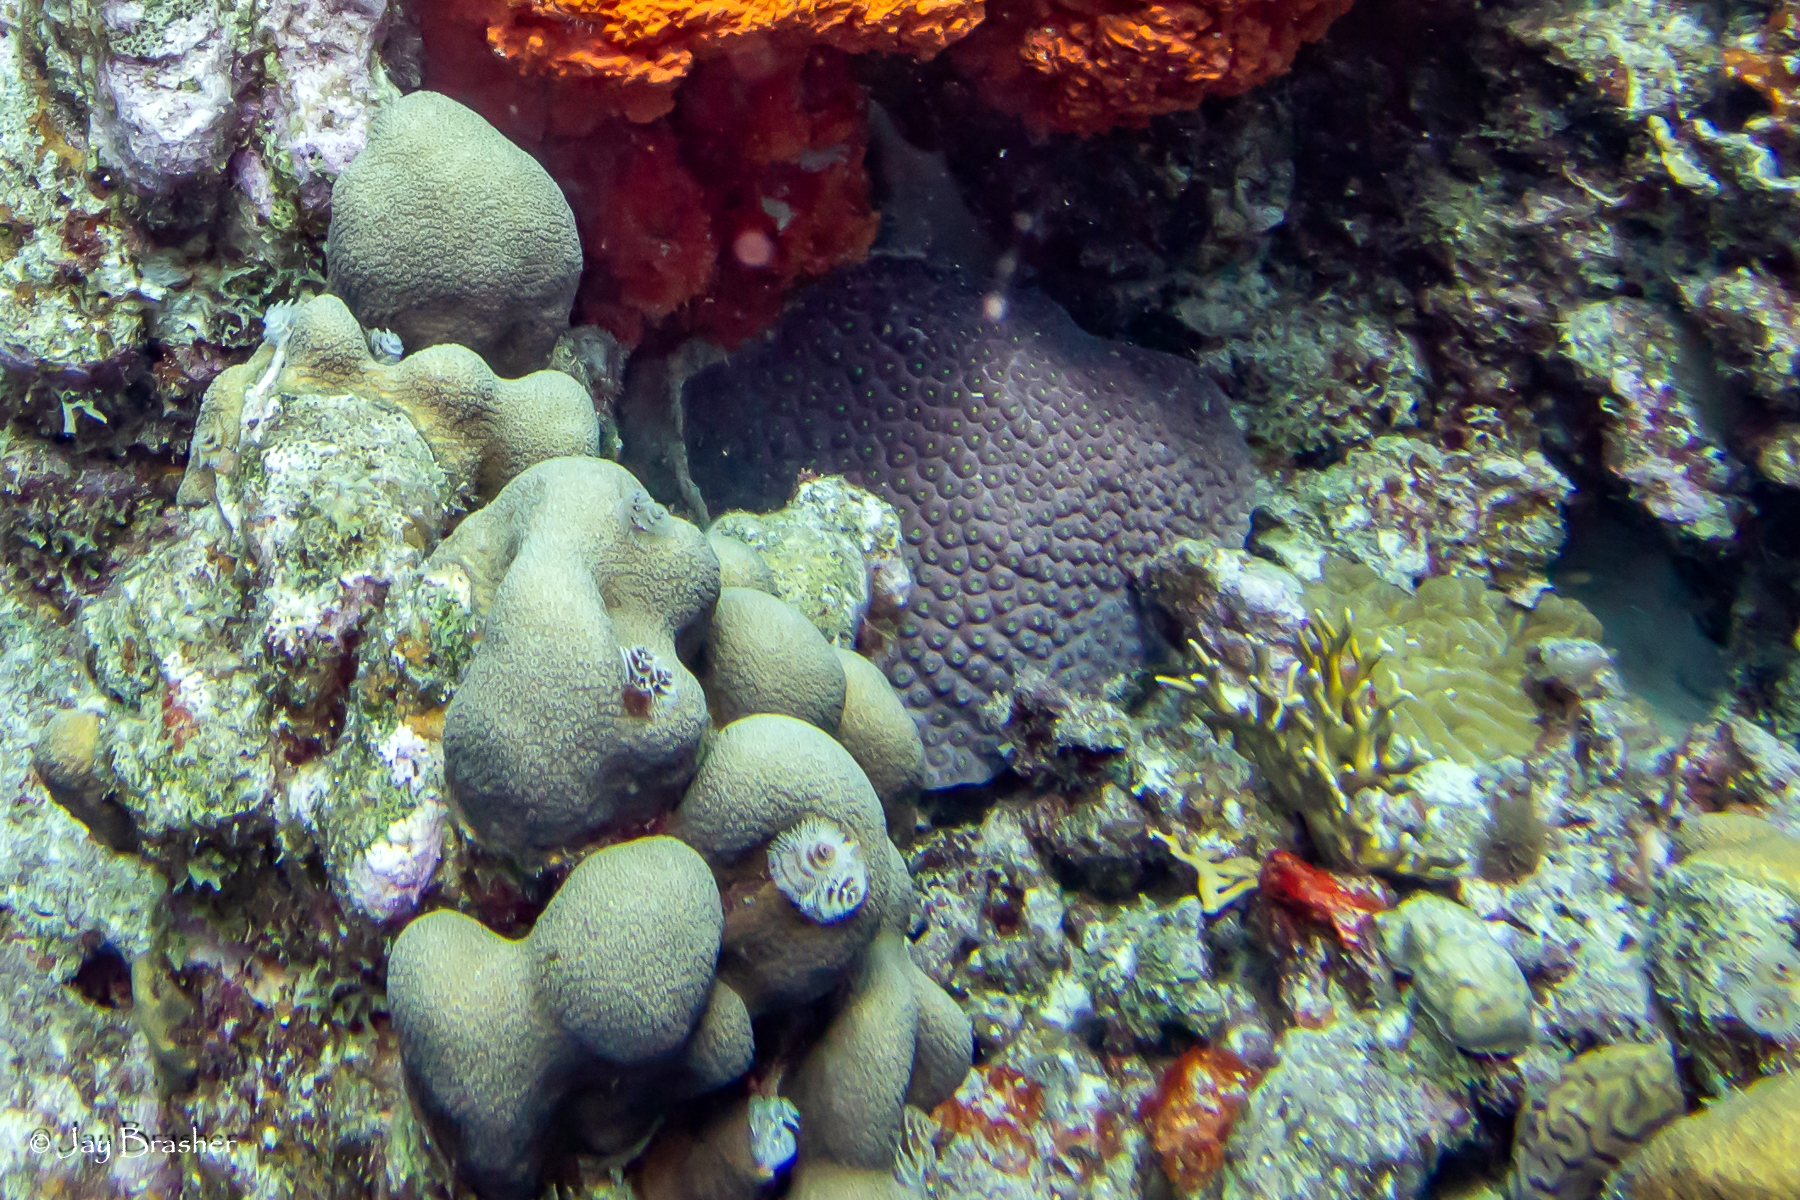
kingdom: Animalia
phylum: Cnidaria
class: Anthozoa
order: Scleractinia
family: Merulinidae
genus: Orbicella
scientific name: Orbicella annularis
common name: Boulder star coral
